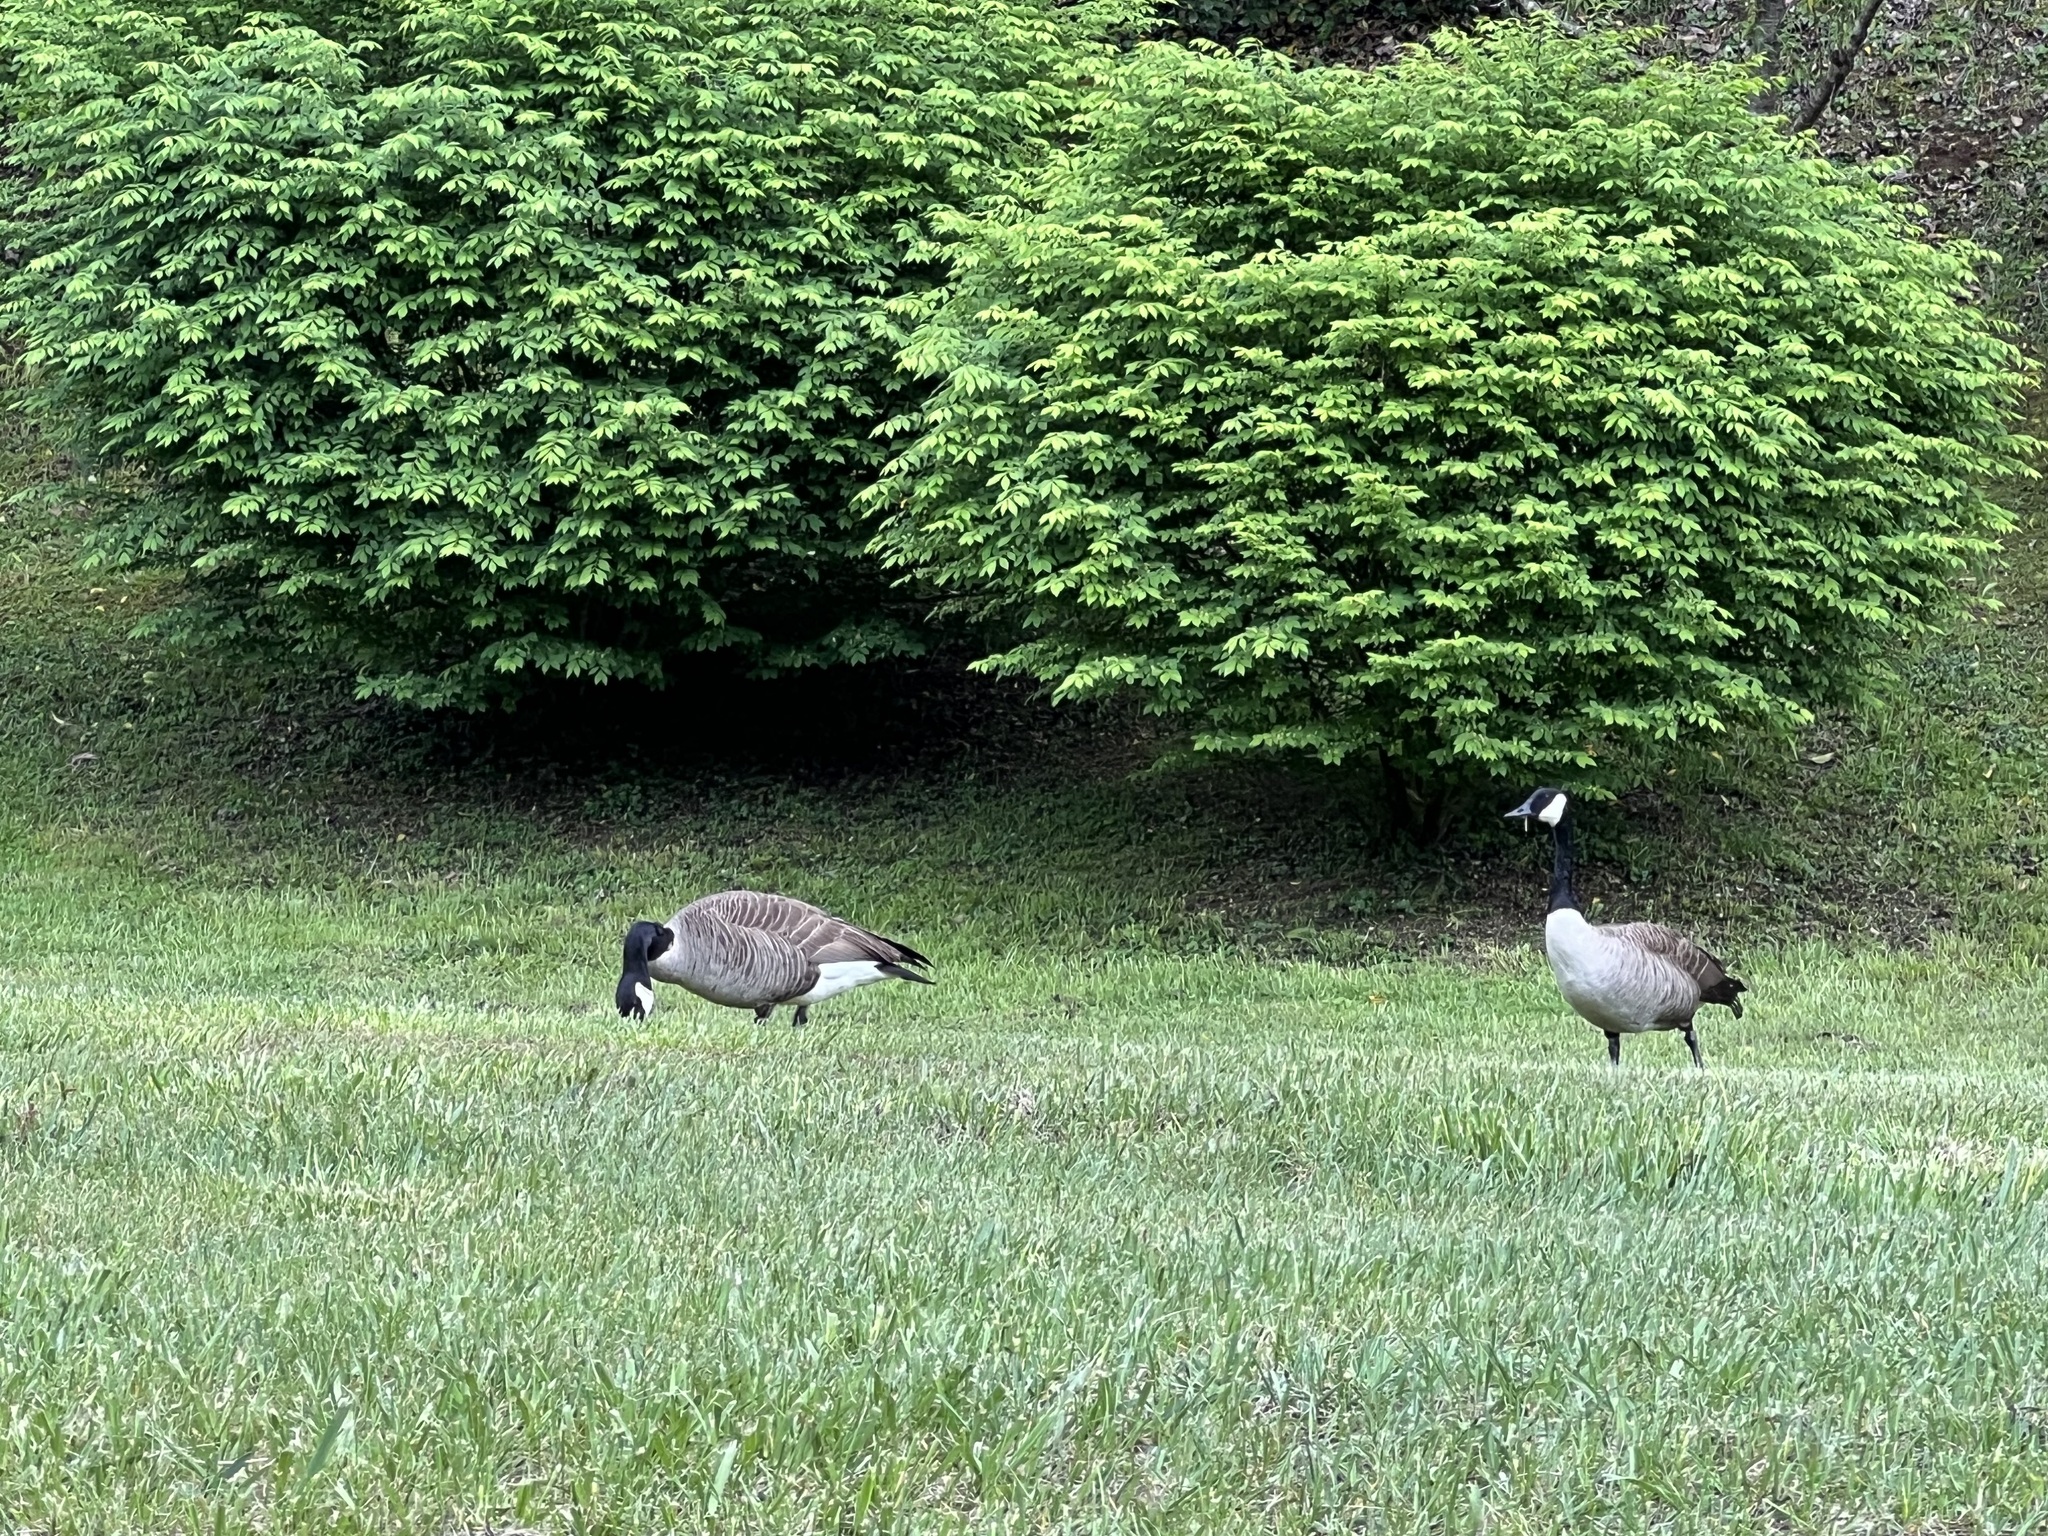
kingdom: Animalia
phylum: Chordata
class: Aves
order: Anseriformes
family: Anatidae
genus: Branta
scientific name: Branta canadensis
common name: Canada goose
